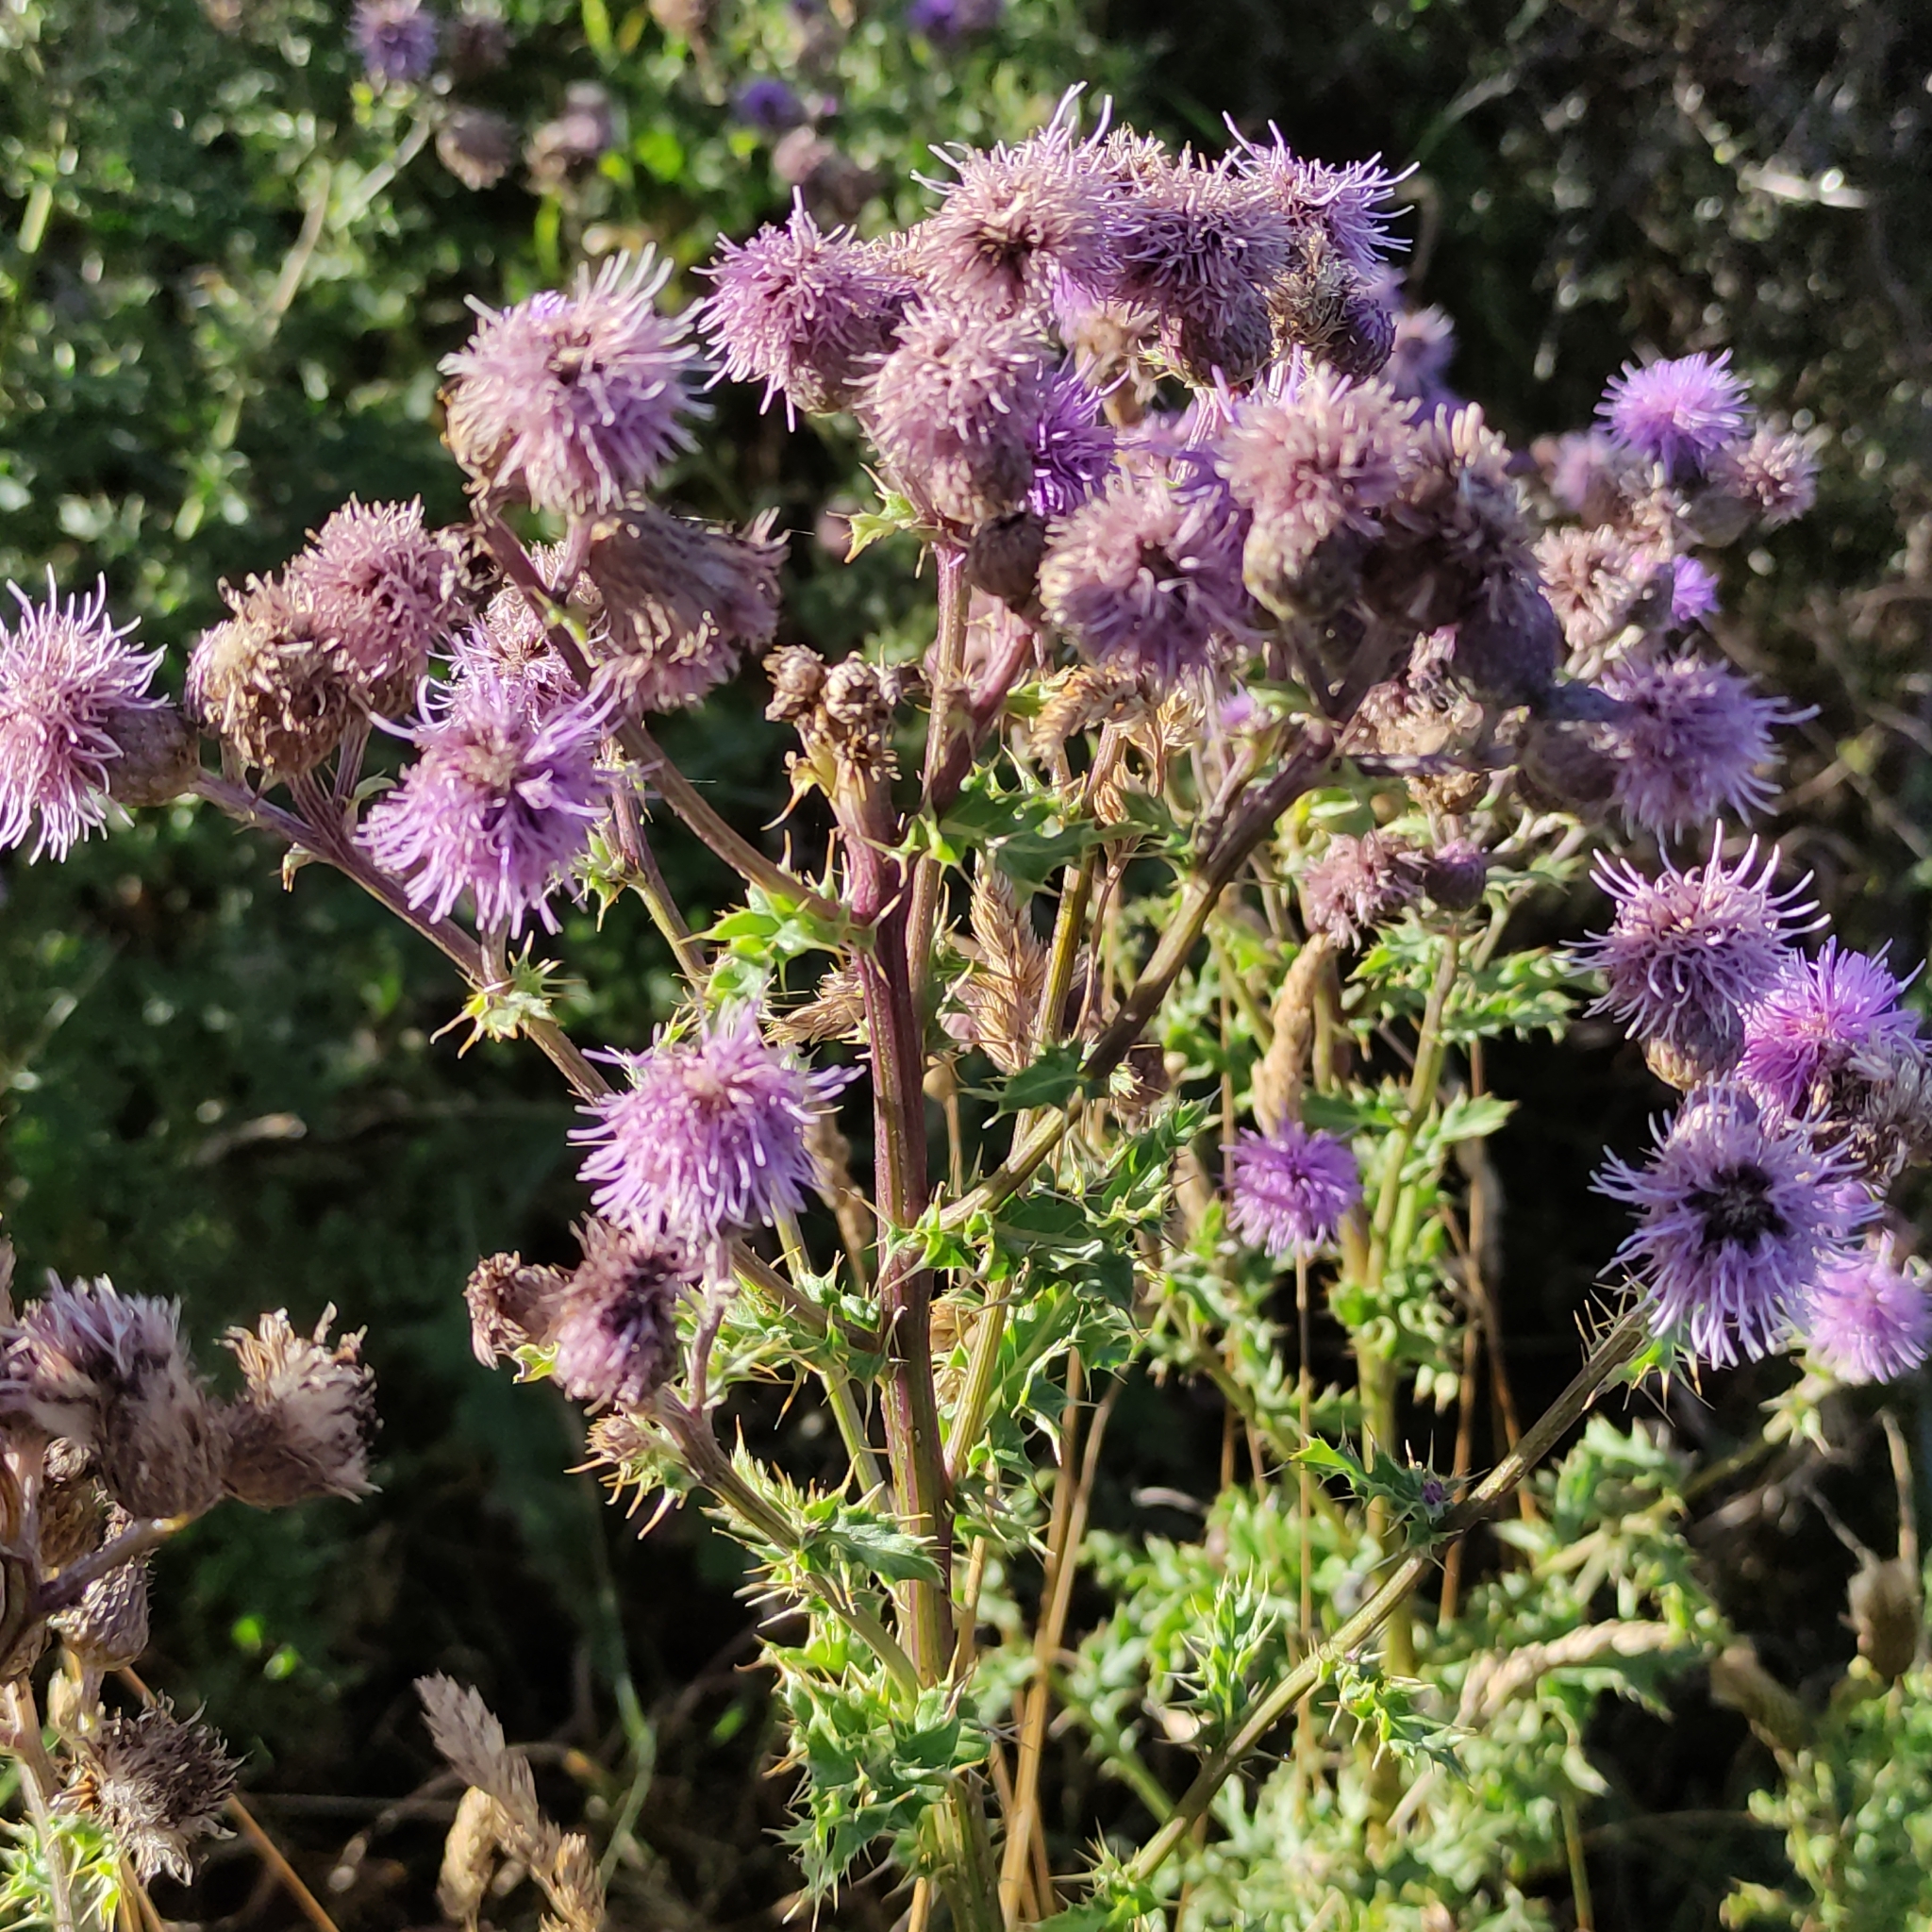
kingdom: Plantae
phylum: Tracheophyta
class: Magnoliopsida
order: Asterales
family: Asteraceae
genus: Cirsium
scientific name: Cirsium arvense
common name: Creeping thistle
